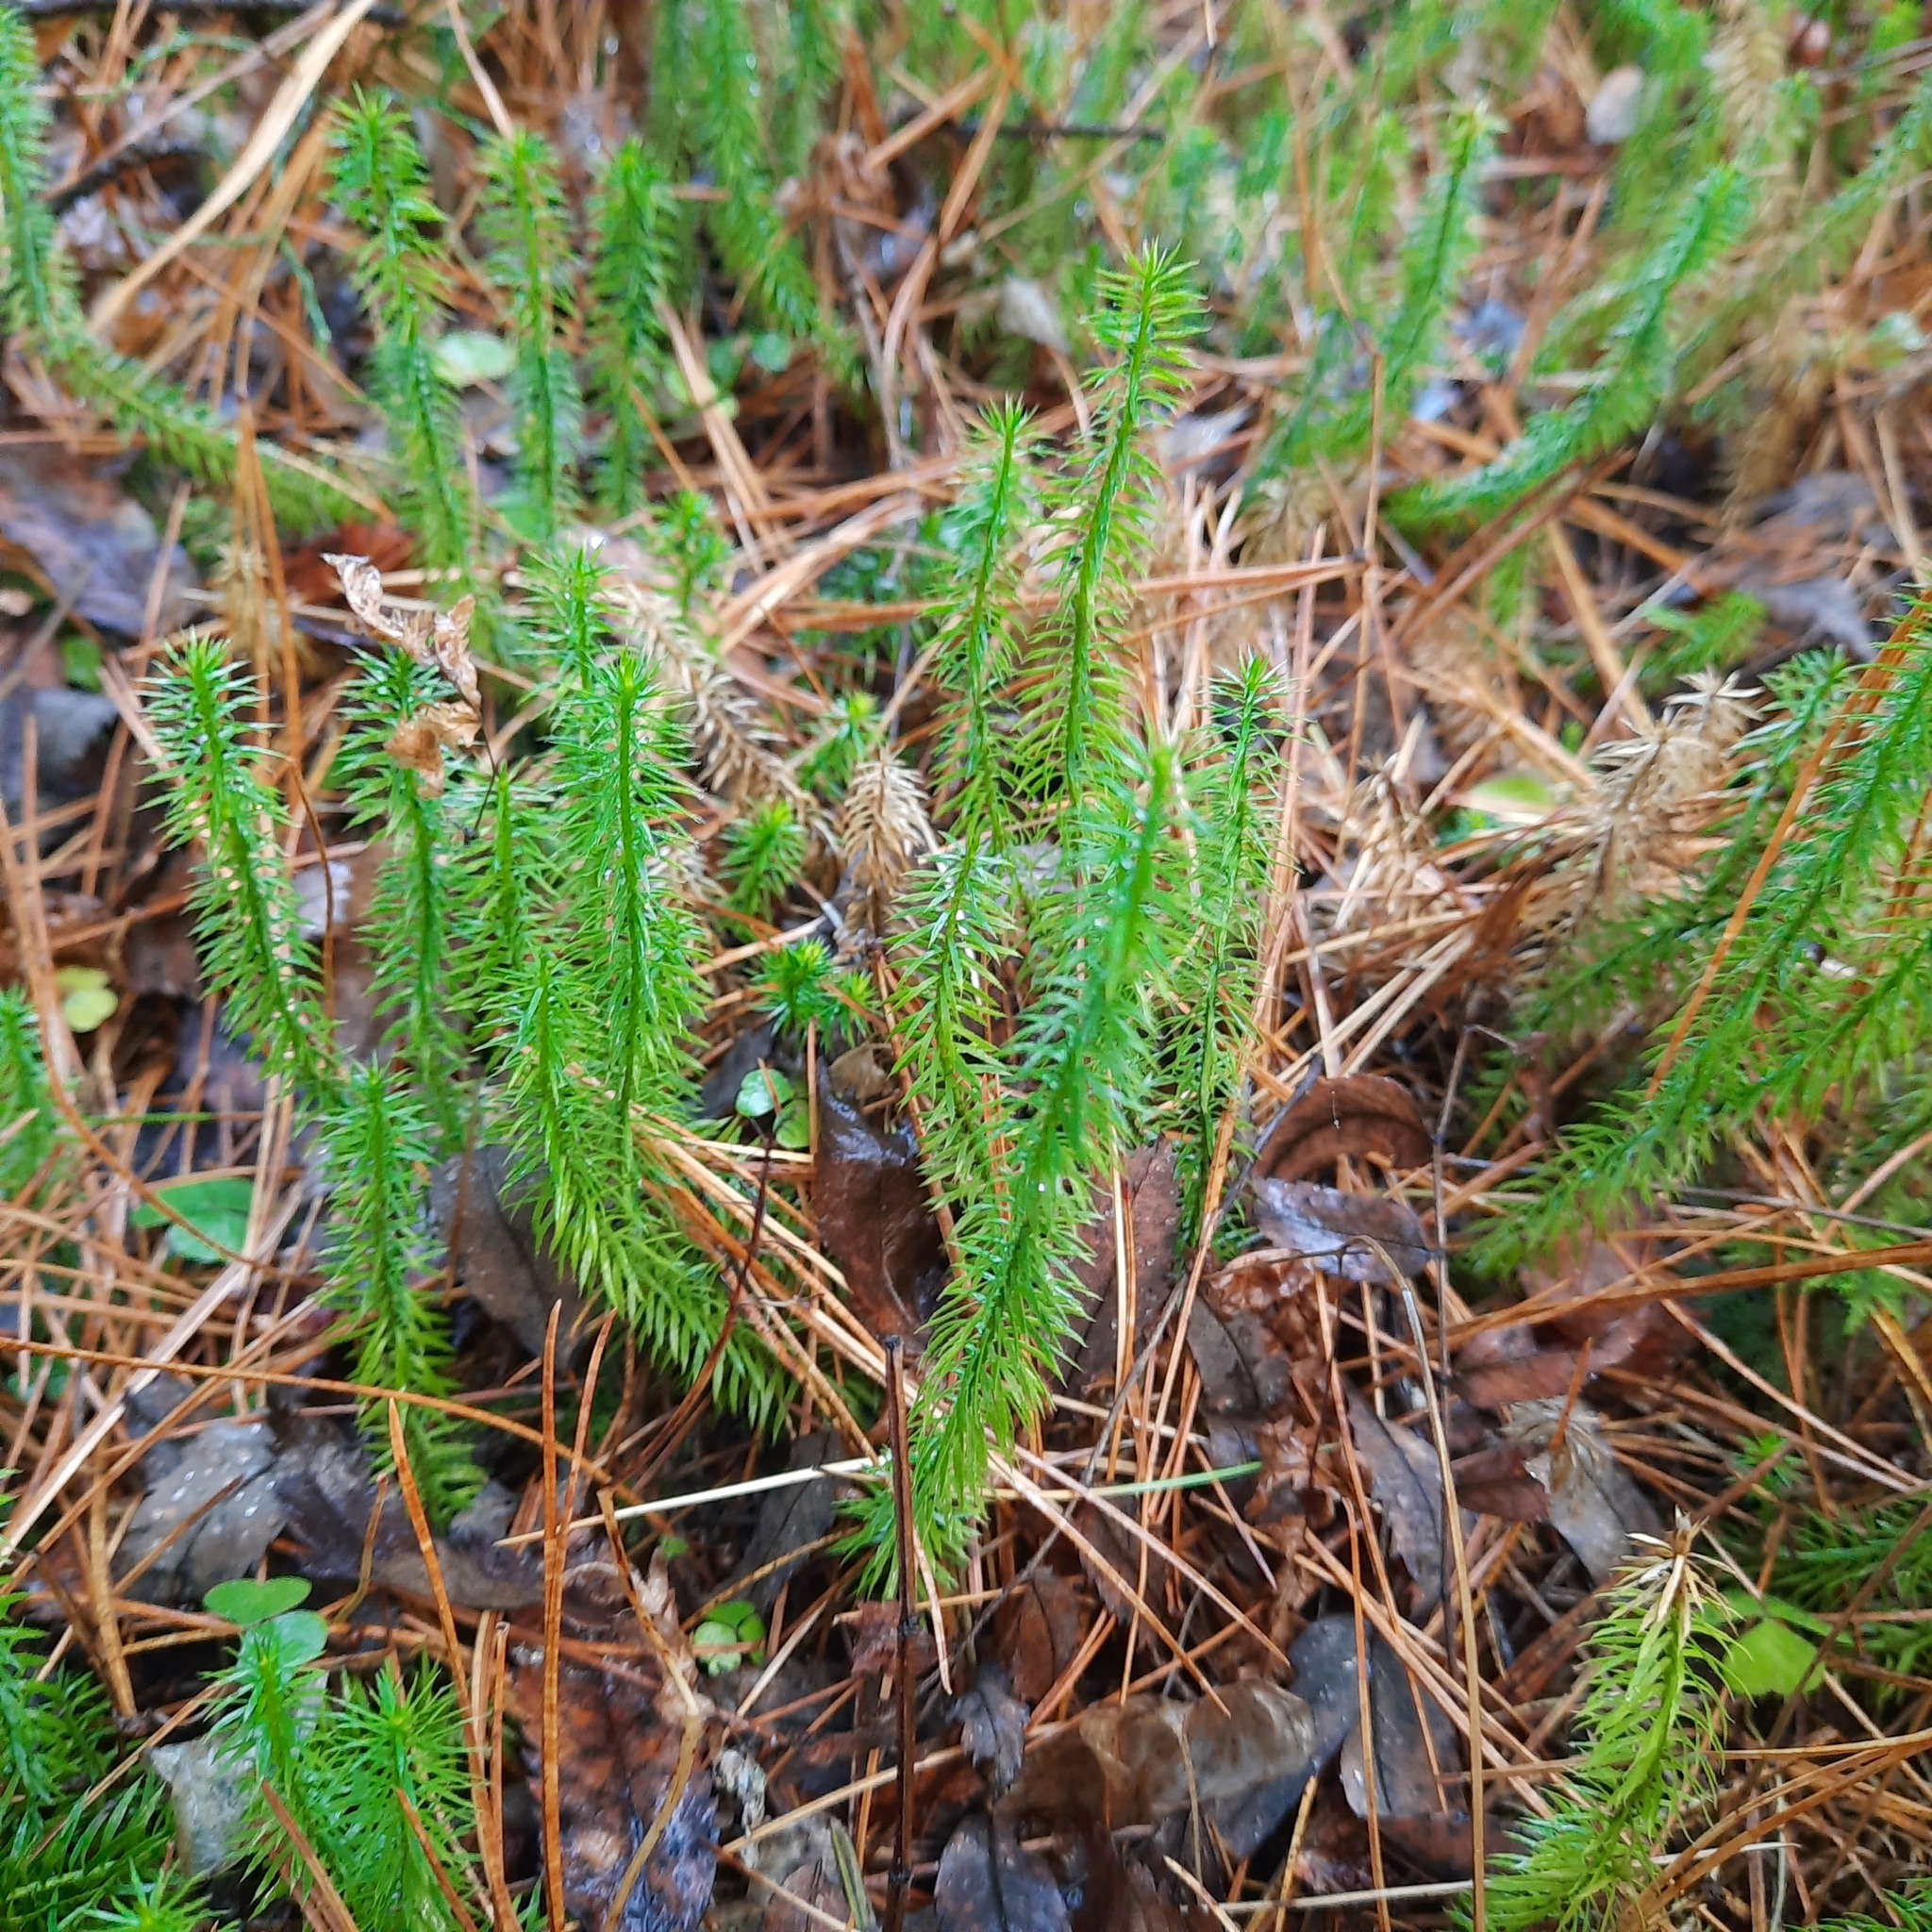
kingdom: Plantae
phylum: Tracheophyta
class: Lycopodiopsida
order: Lycopodiales
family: Lycopodiaceae
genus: Spinulum
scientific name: Spinulum annotinum
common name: Interrupted club-moss
